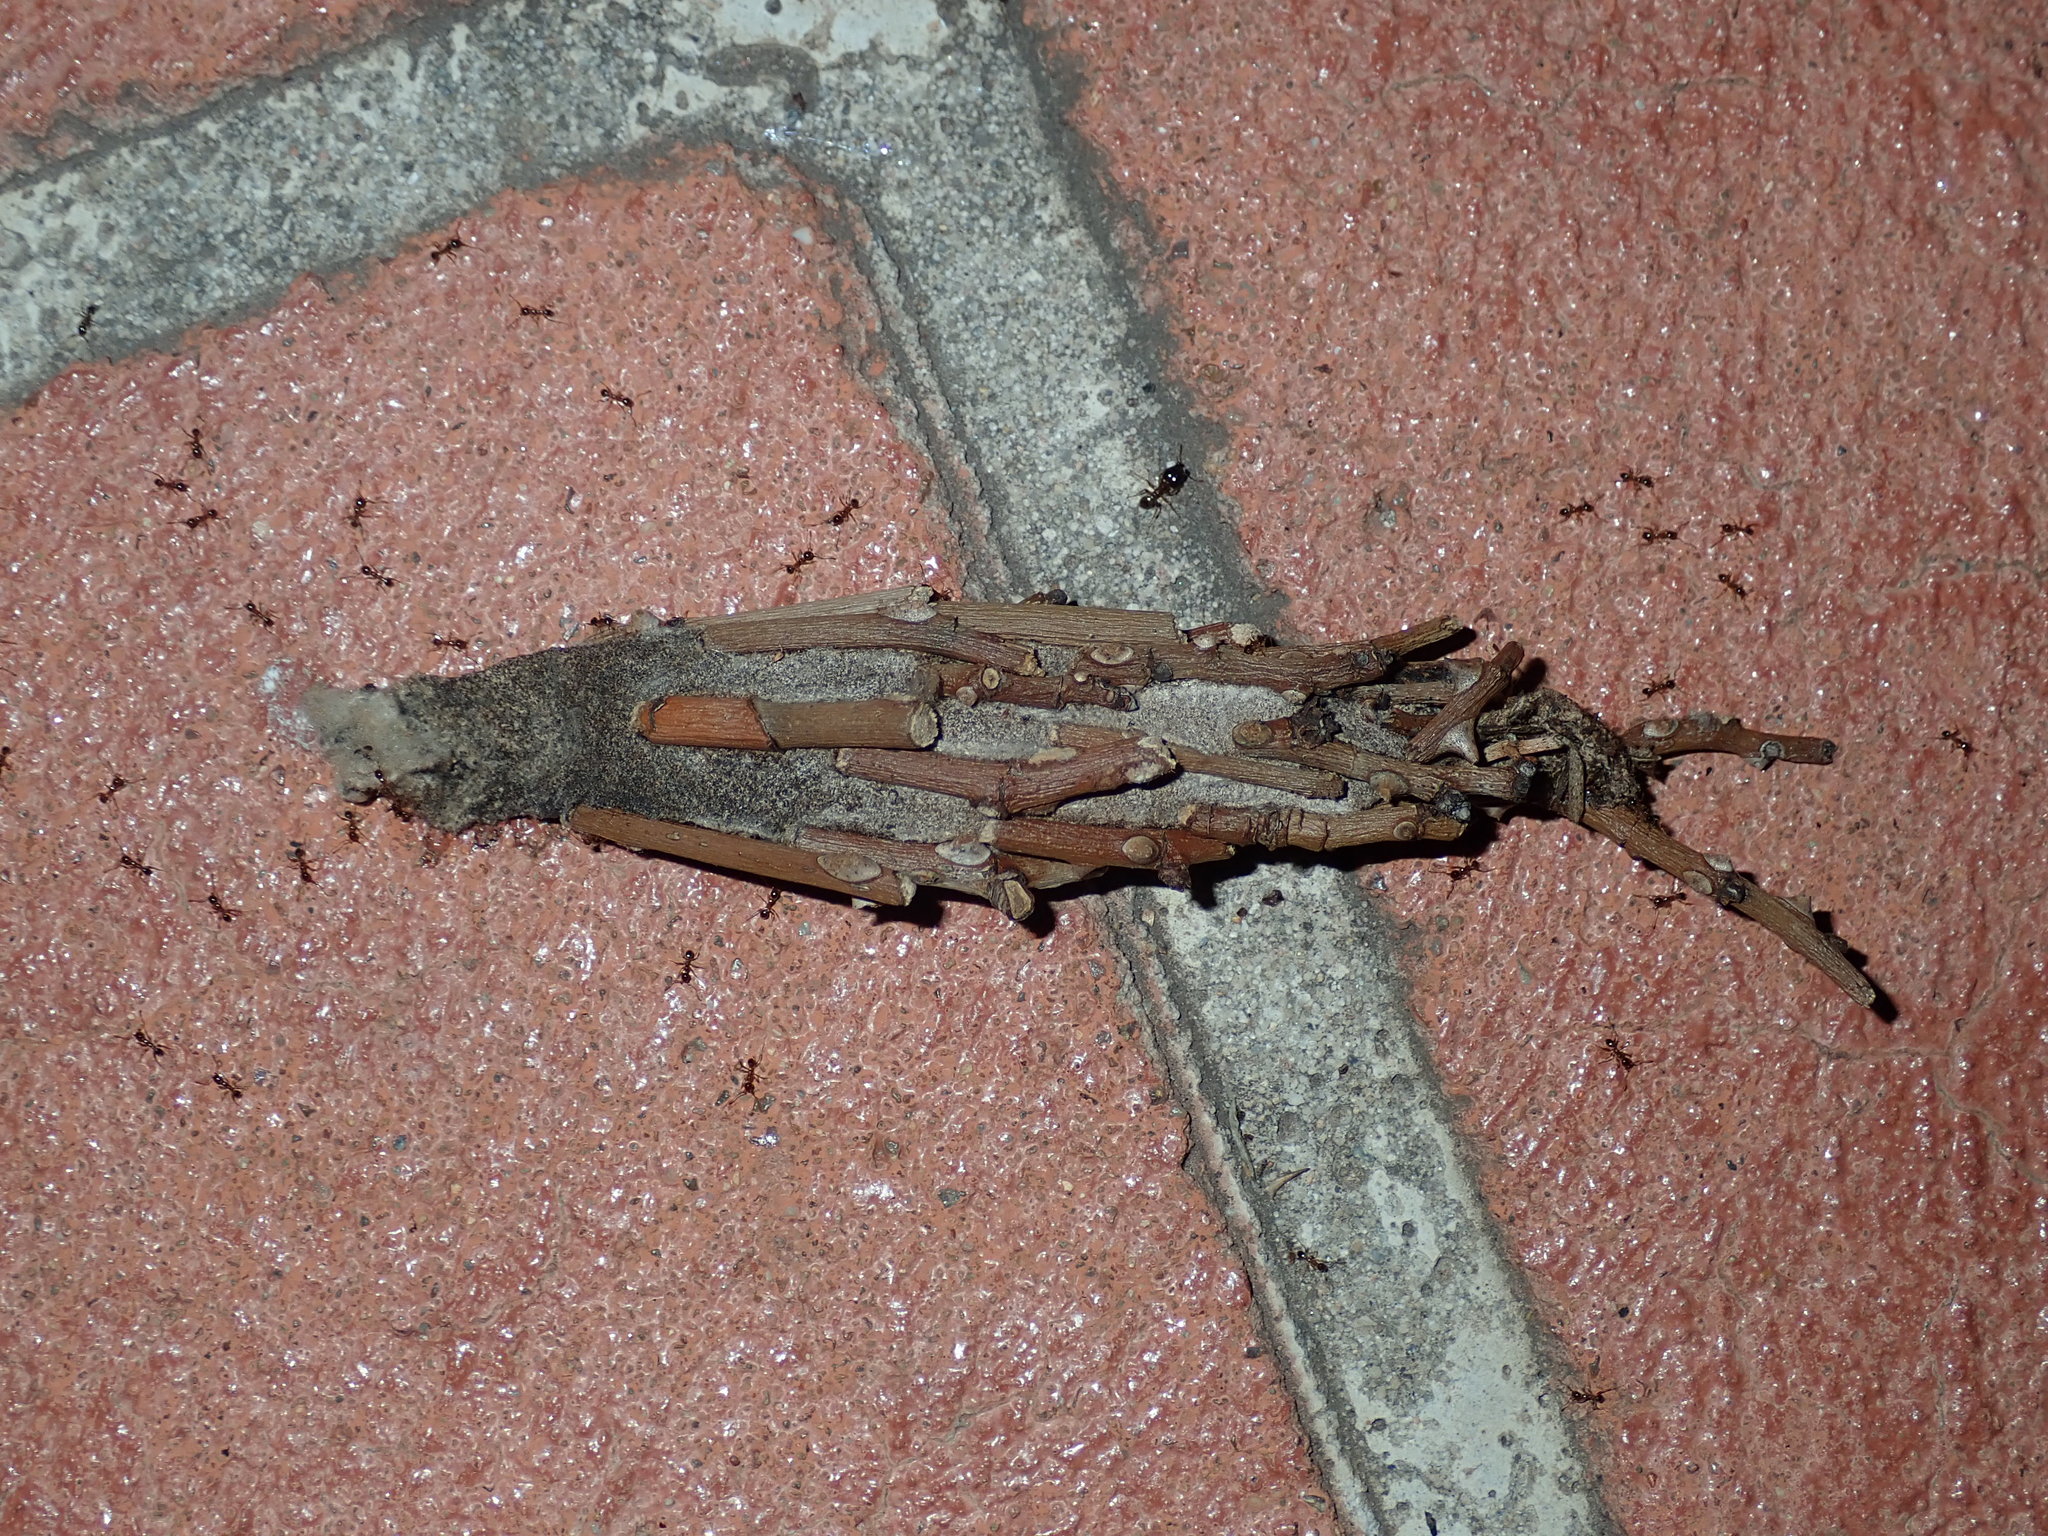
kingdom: Animalia
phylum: Arthropoda
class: Insecta
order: Lepidoptera
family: Psychidae
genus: Metura
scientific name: Metura elongatus
